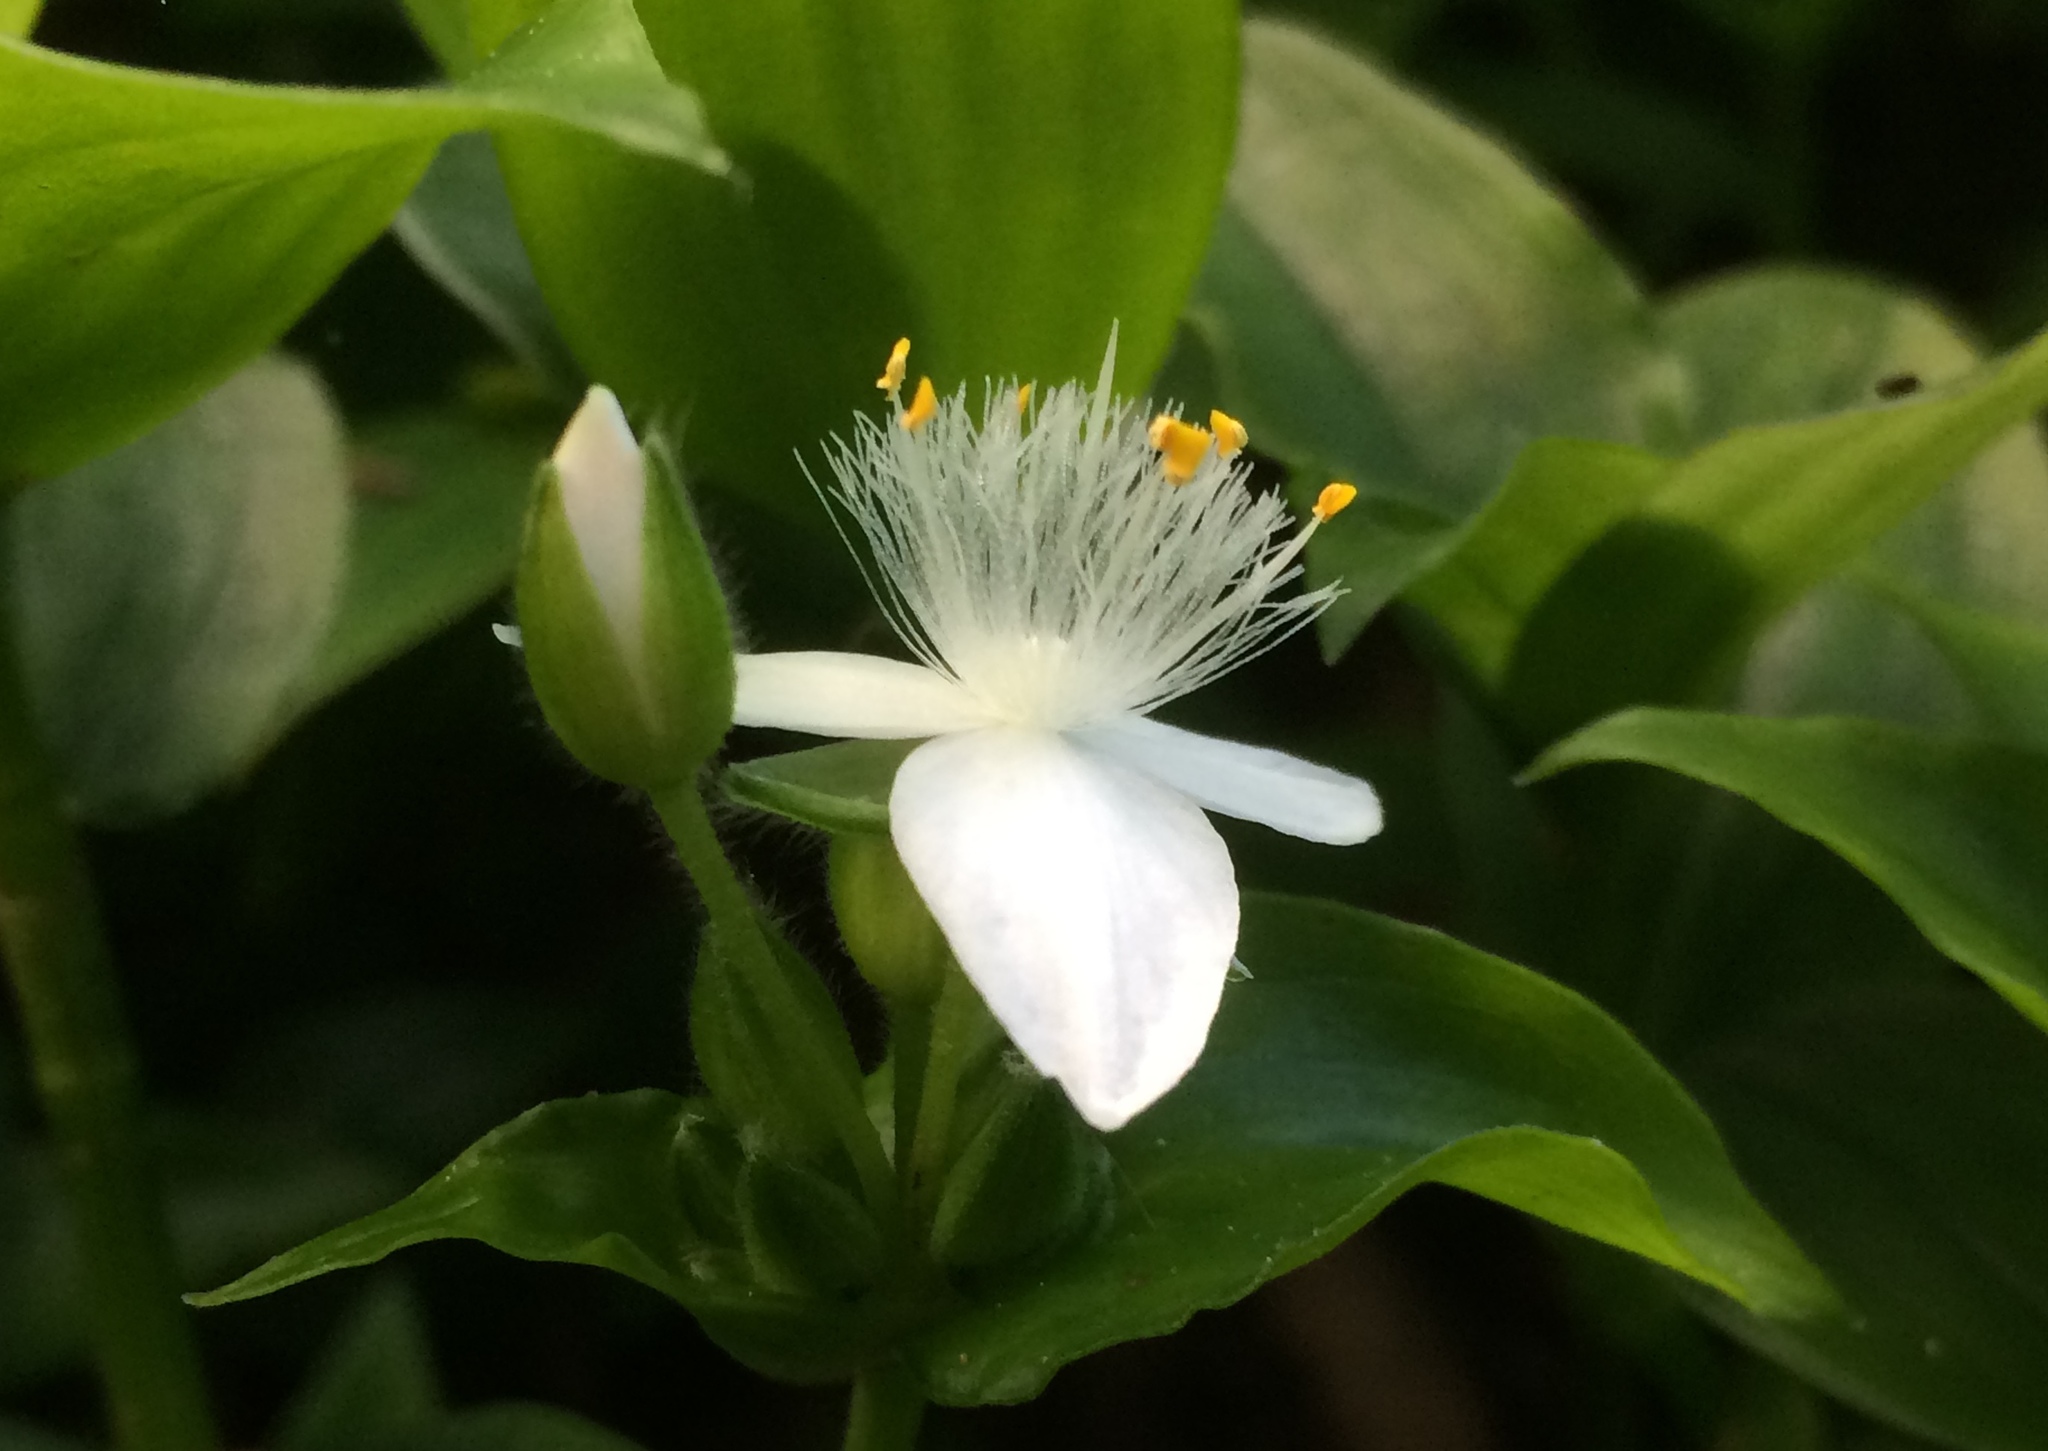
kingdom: Plantae
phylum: Tracheophyta
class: Liliopsida
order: Commelinales
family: Commelinaceae
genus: Tradescantia
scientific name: Tradescantia fluminensis
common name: Wandering-jew
